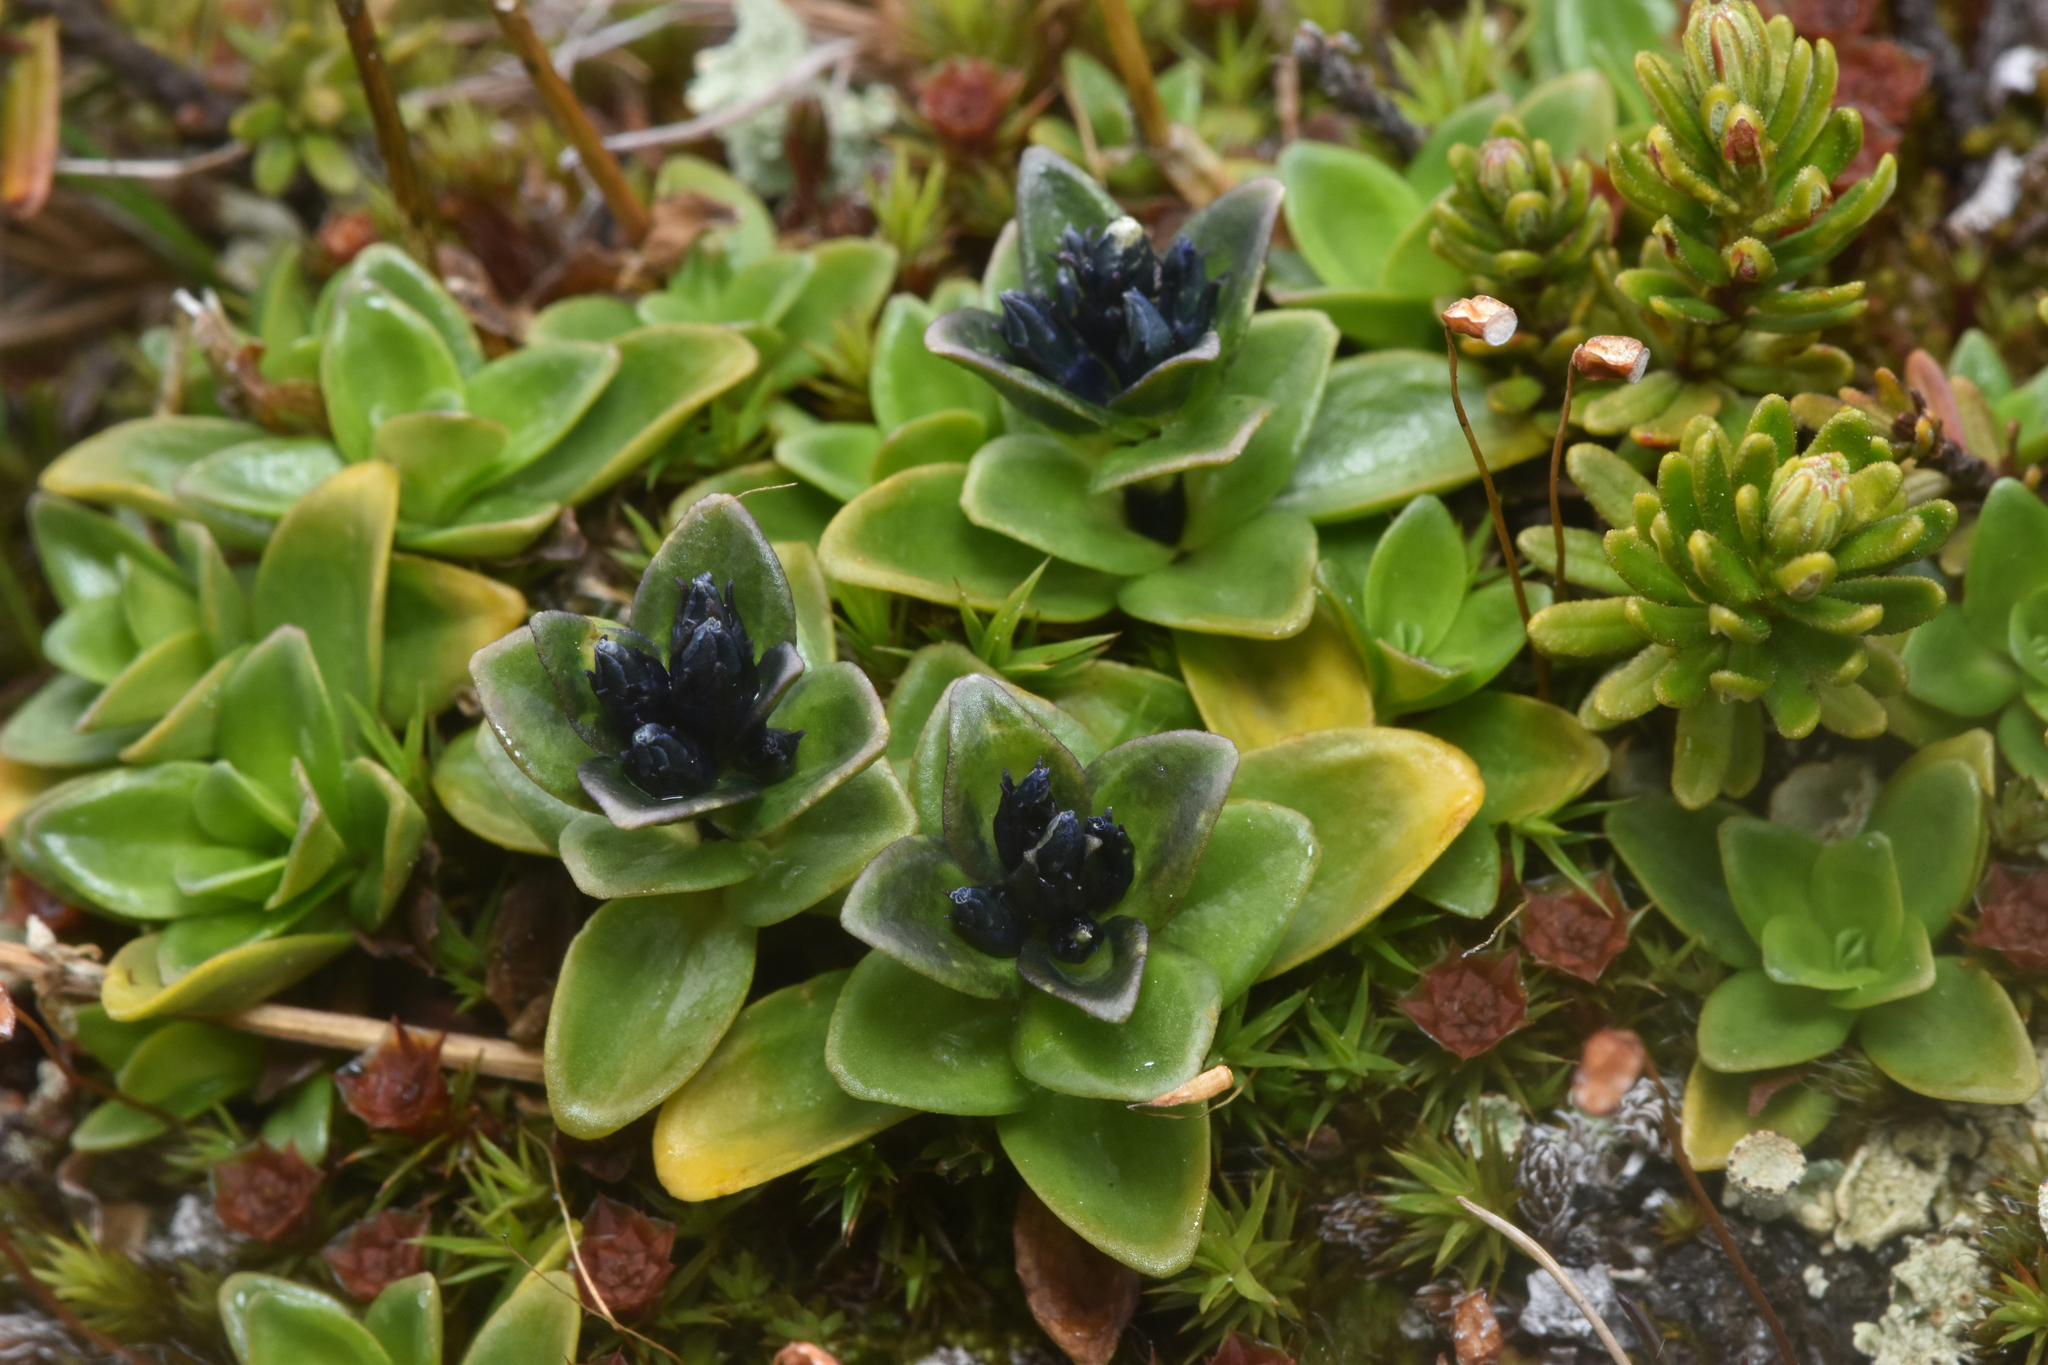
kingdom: Plantae
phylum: Tracheophyta
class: Magnoliopsida
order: Gentianales
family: Gentianaceae
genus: Gentiana
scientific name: Gentiana glauca
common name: Alpine gentian
